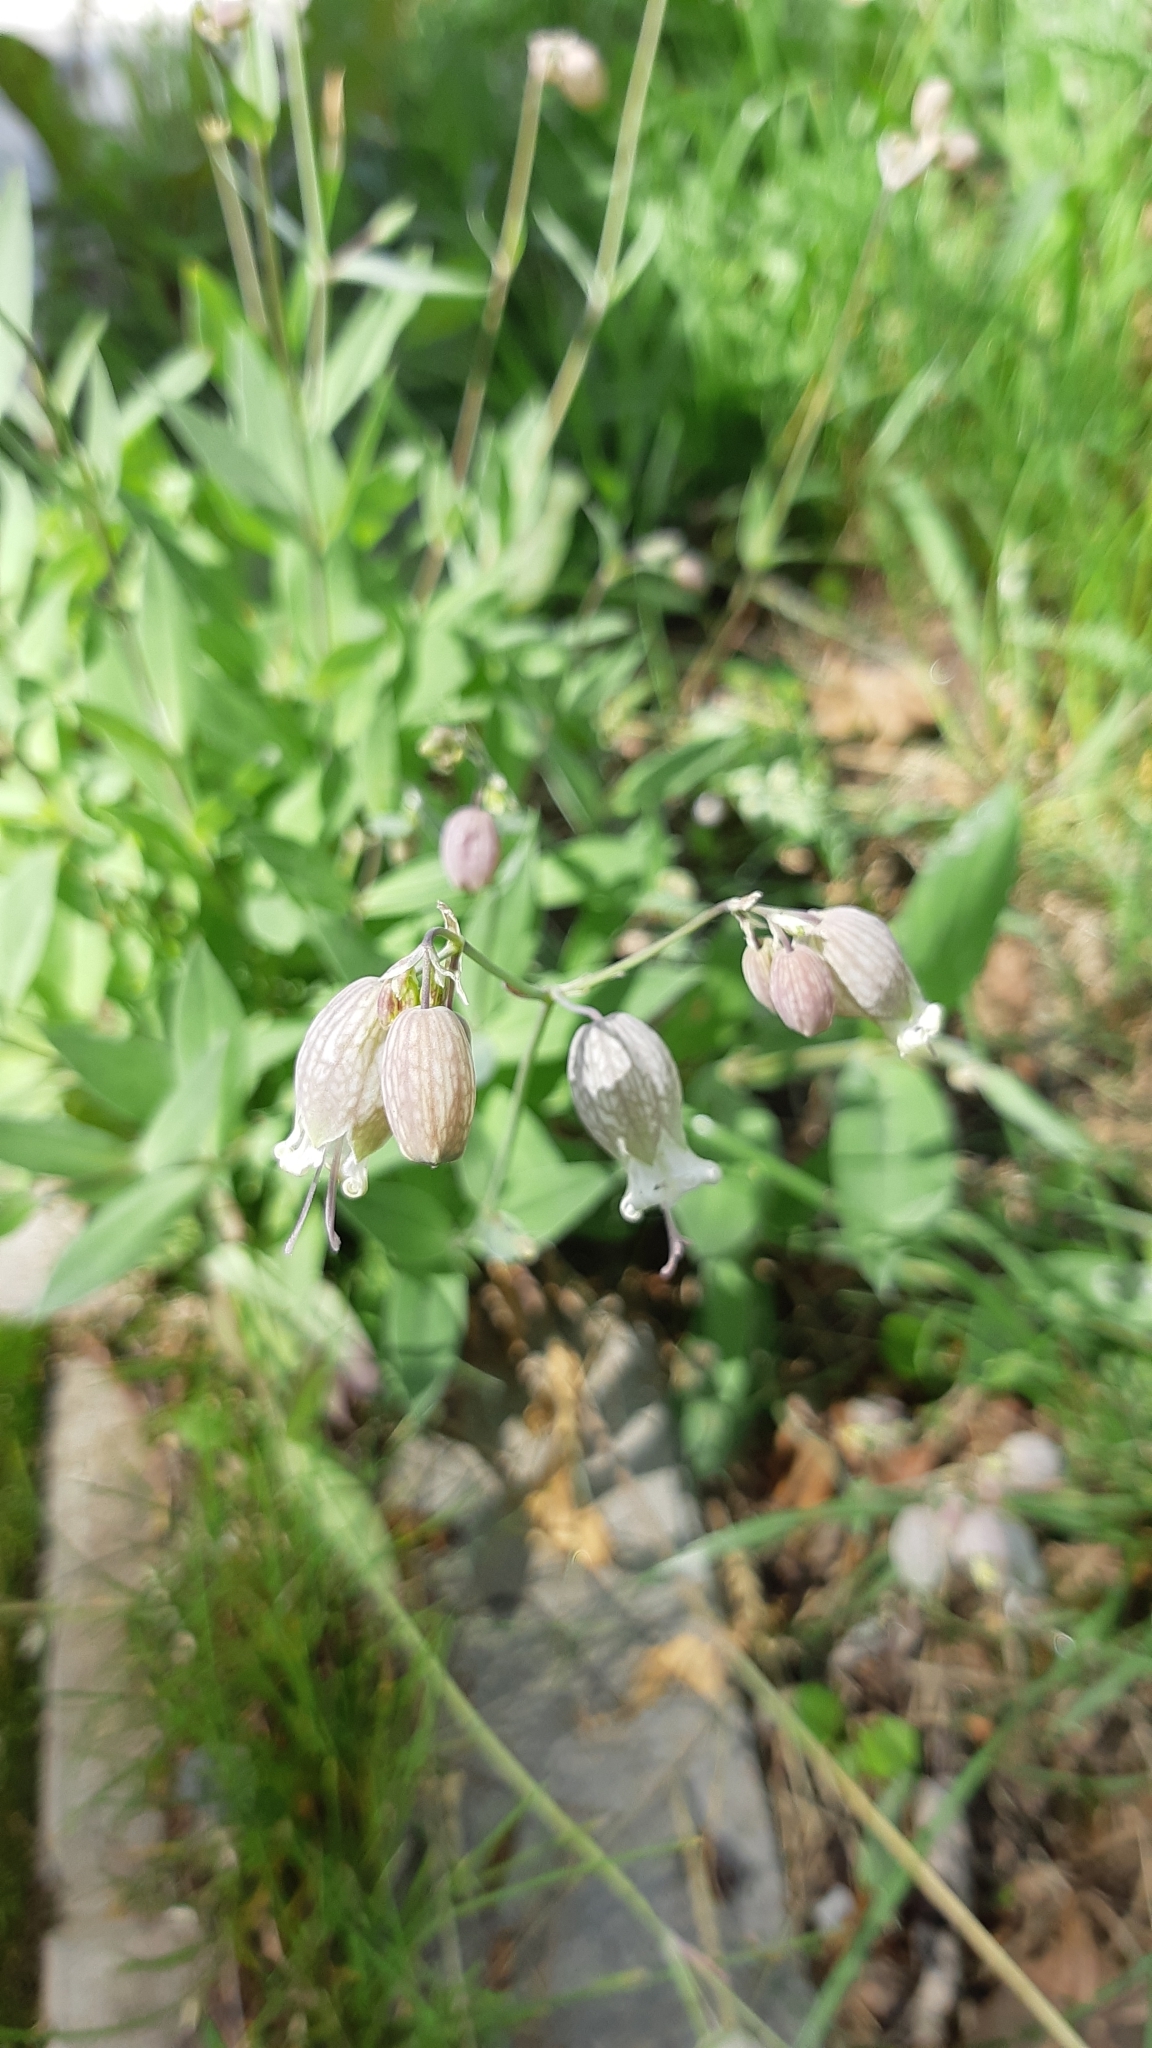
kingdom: Plantae
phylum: Tracheophyta
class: Magnoliopsida
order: Caryophyllales
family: Caryophyllaceae
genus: Silene
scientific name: Silene vulgaris
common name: Bladder campion
